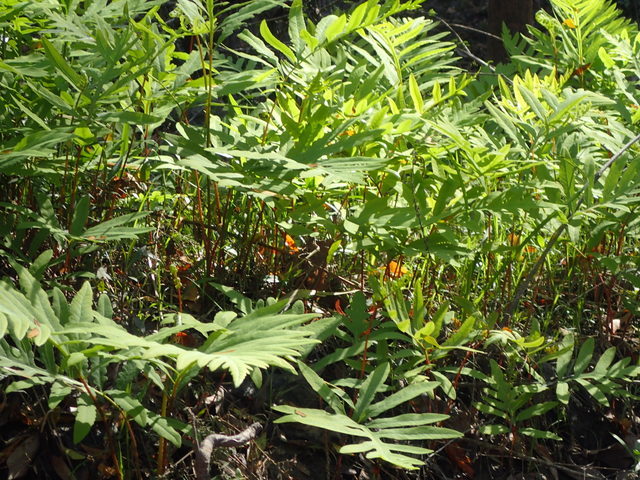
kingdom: Plantae
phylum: Tracheophyta
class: Polypodiopsida
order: Polypodiales
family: Blechnaceae
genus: Lorinseria
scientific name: Lorinseria areolata
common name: Dwarf chain fern
